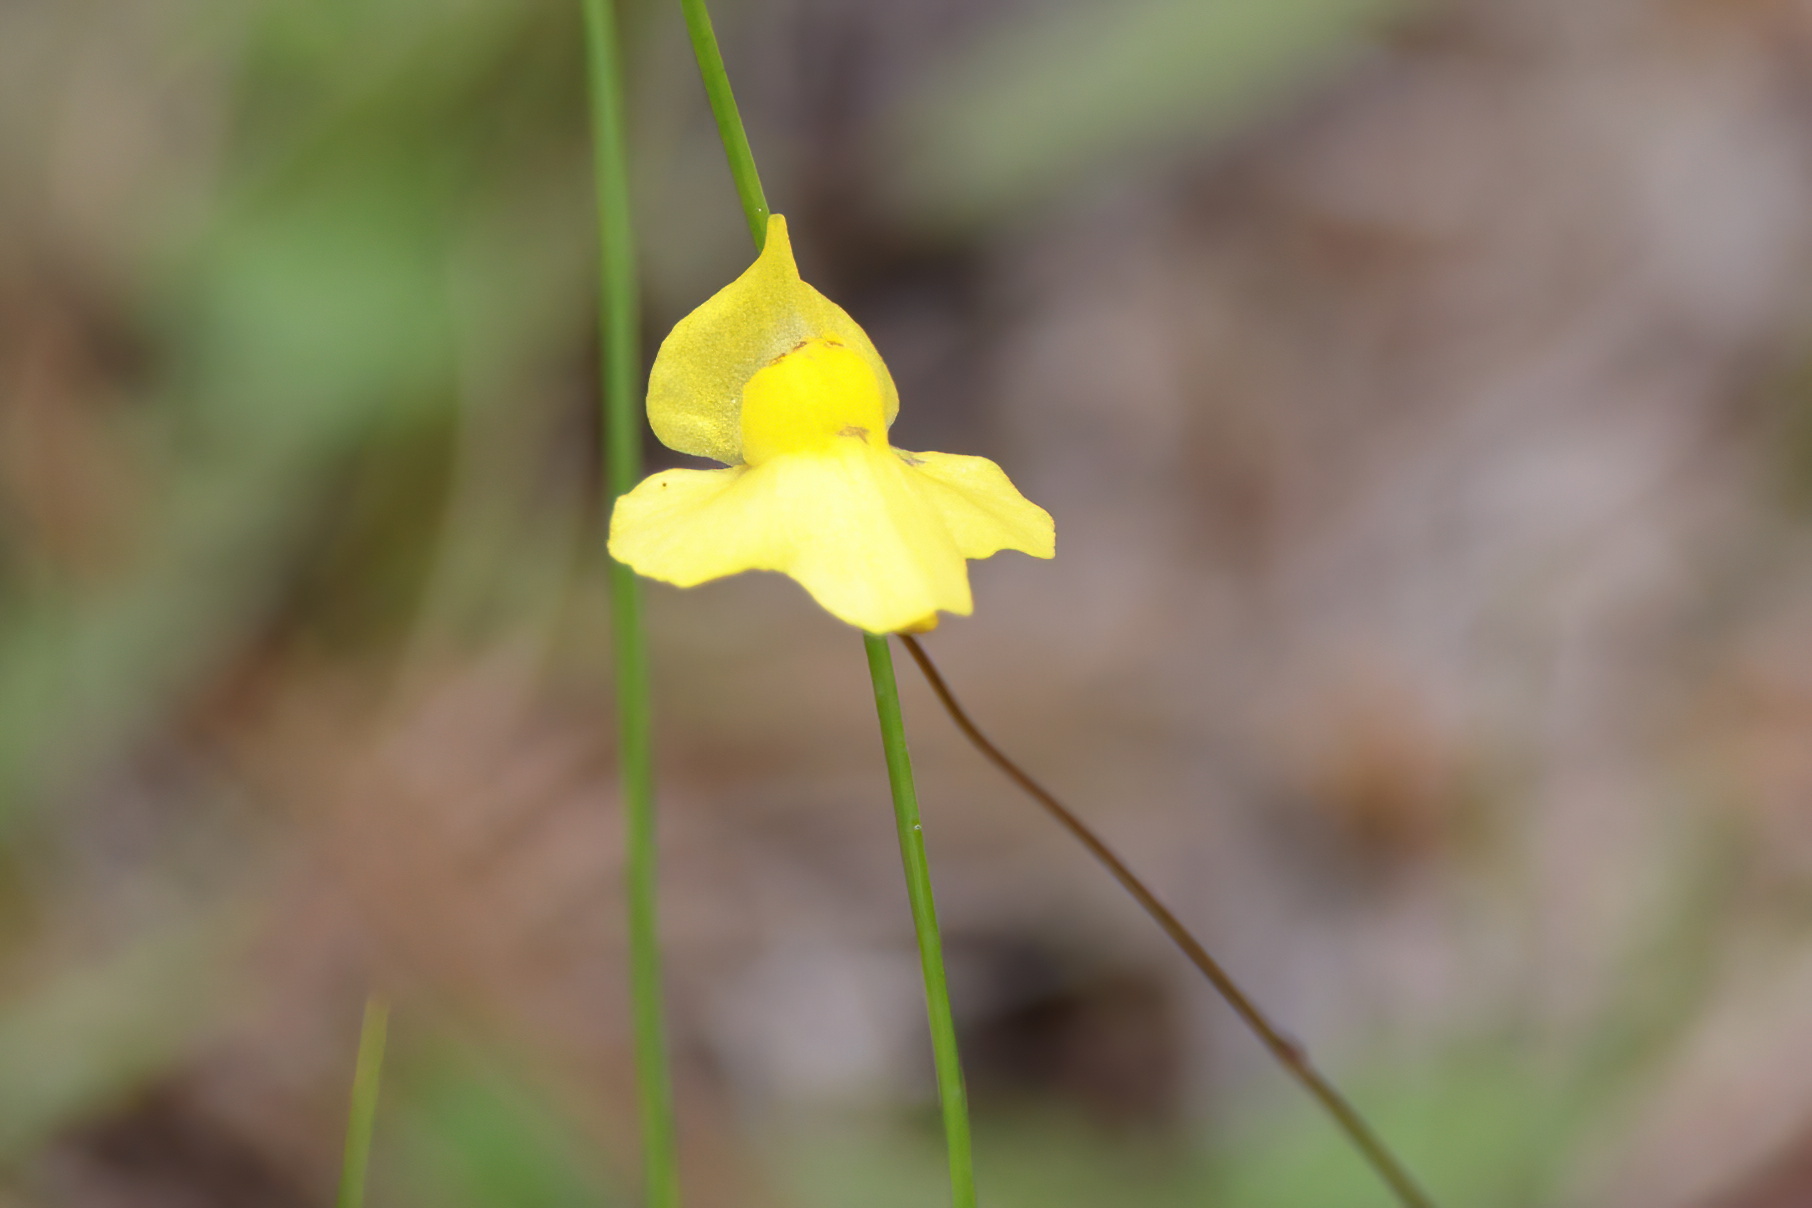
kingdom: Plantae
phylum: Tracheophyta
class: Magnoliopsida
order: Lamiales
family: Lentibulariaceae
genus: Utricularia
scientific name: Utricularia subulata
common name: Tiny bladderwort
